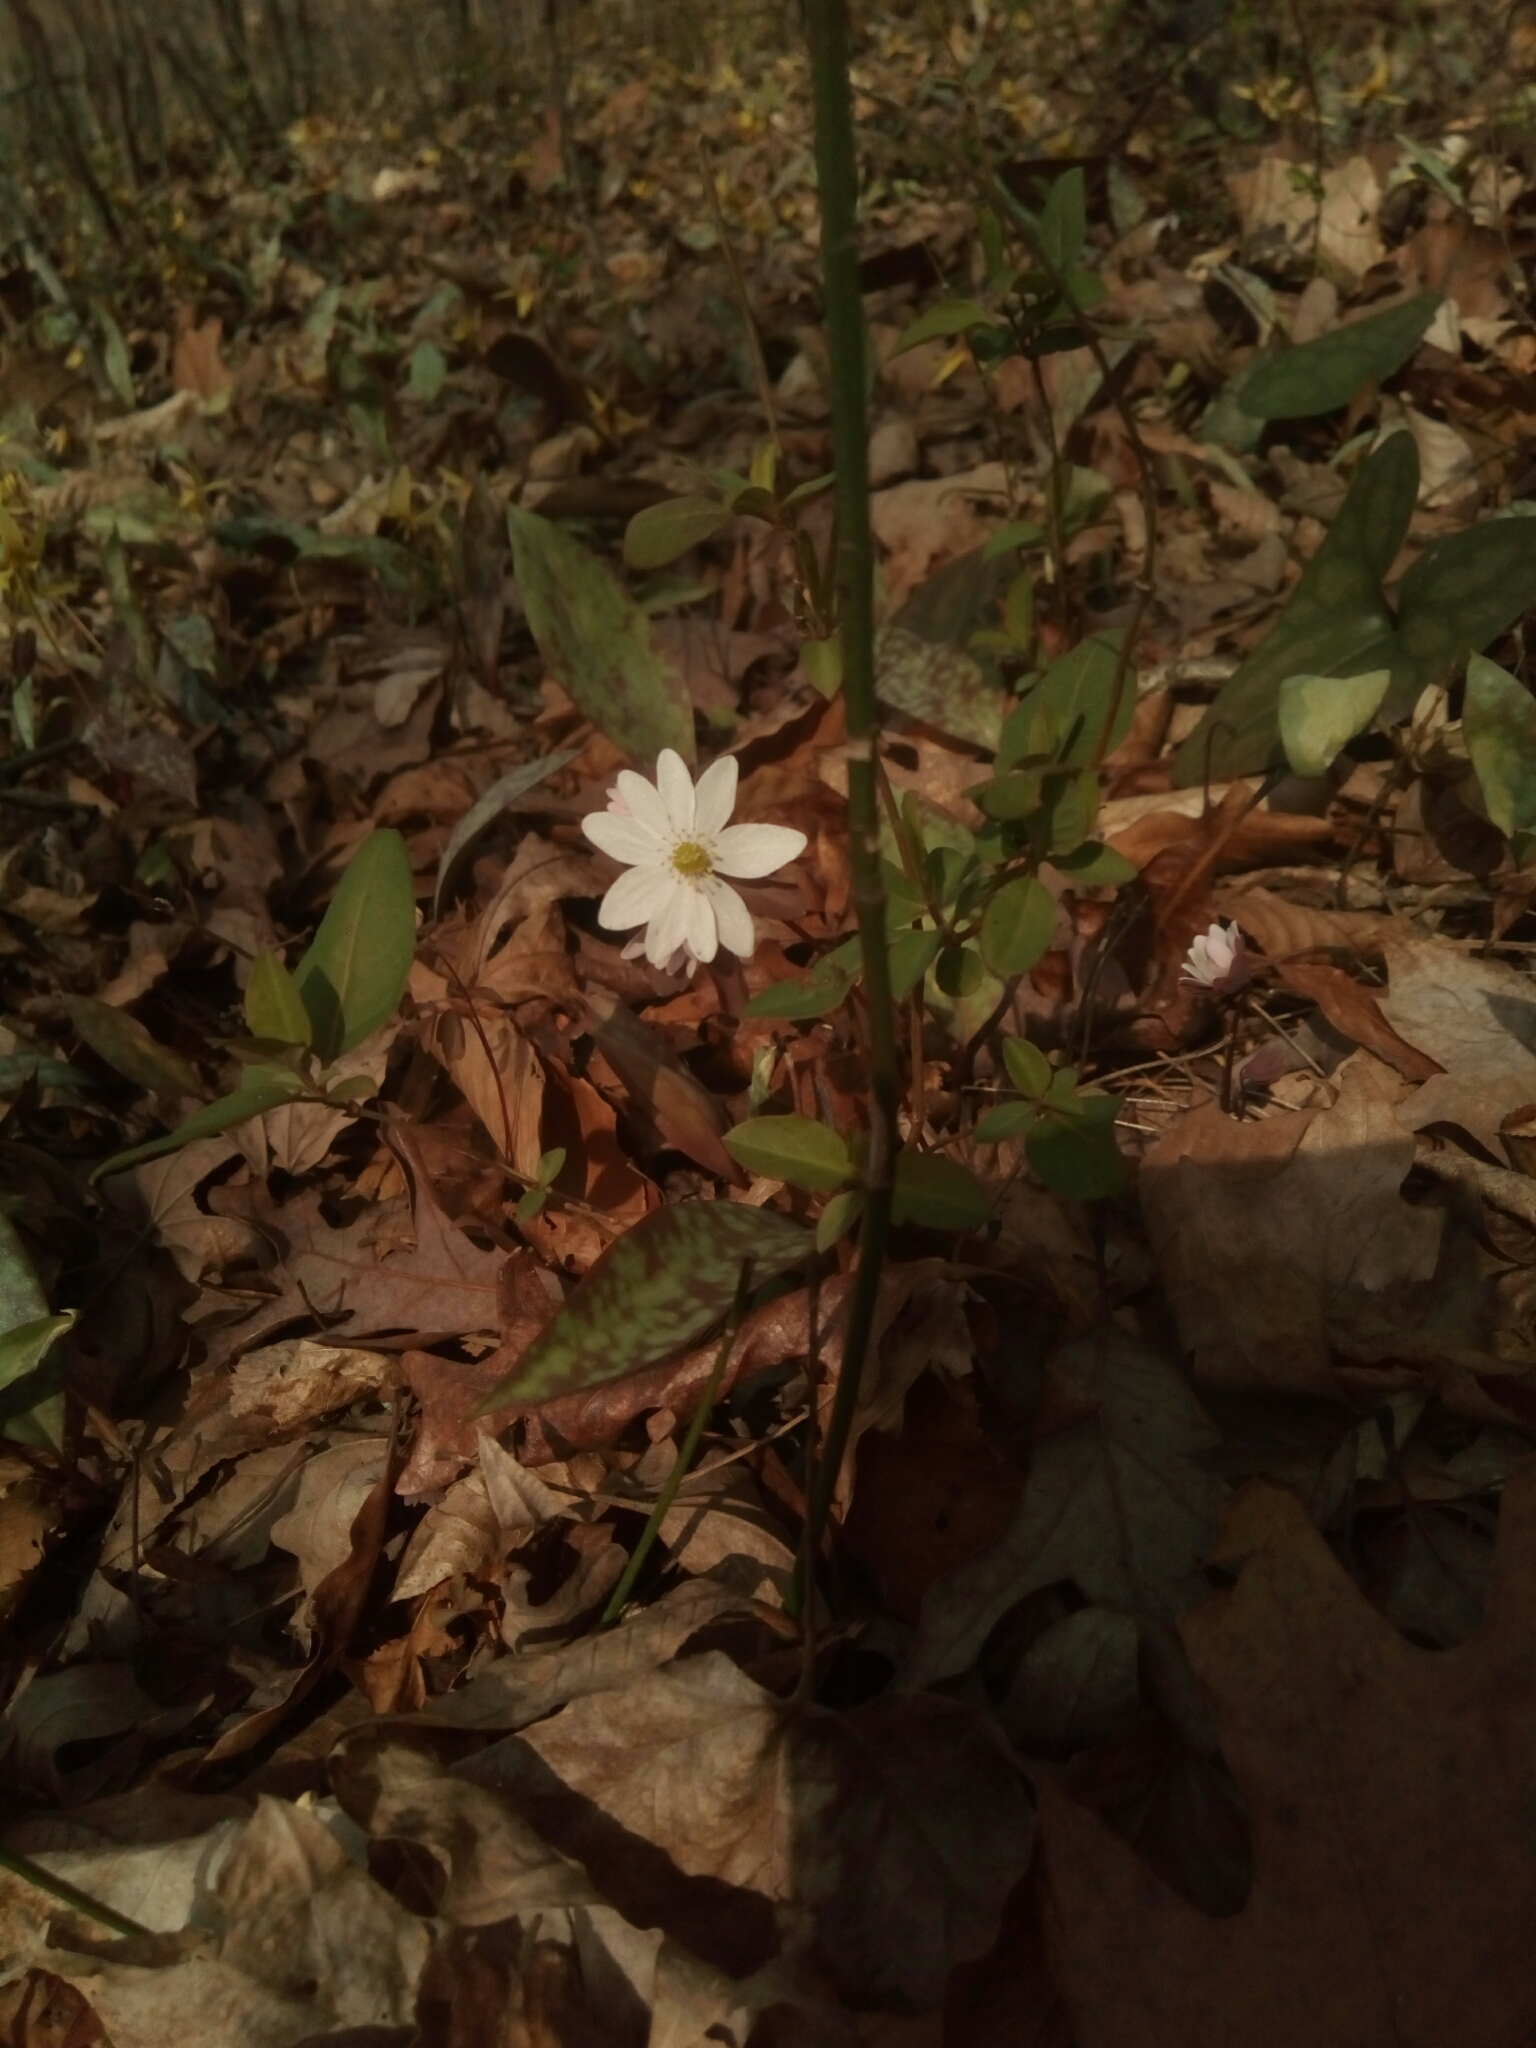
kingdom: Plantae
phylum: Tracheophyta
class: Magnoliopsida
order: Ranunculales
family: Ranunculaceae
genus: Thalictrum
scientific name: Thalictrum thalictroides
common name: Rue-anemone
